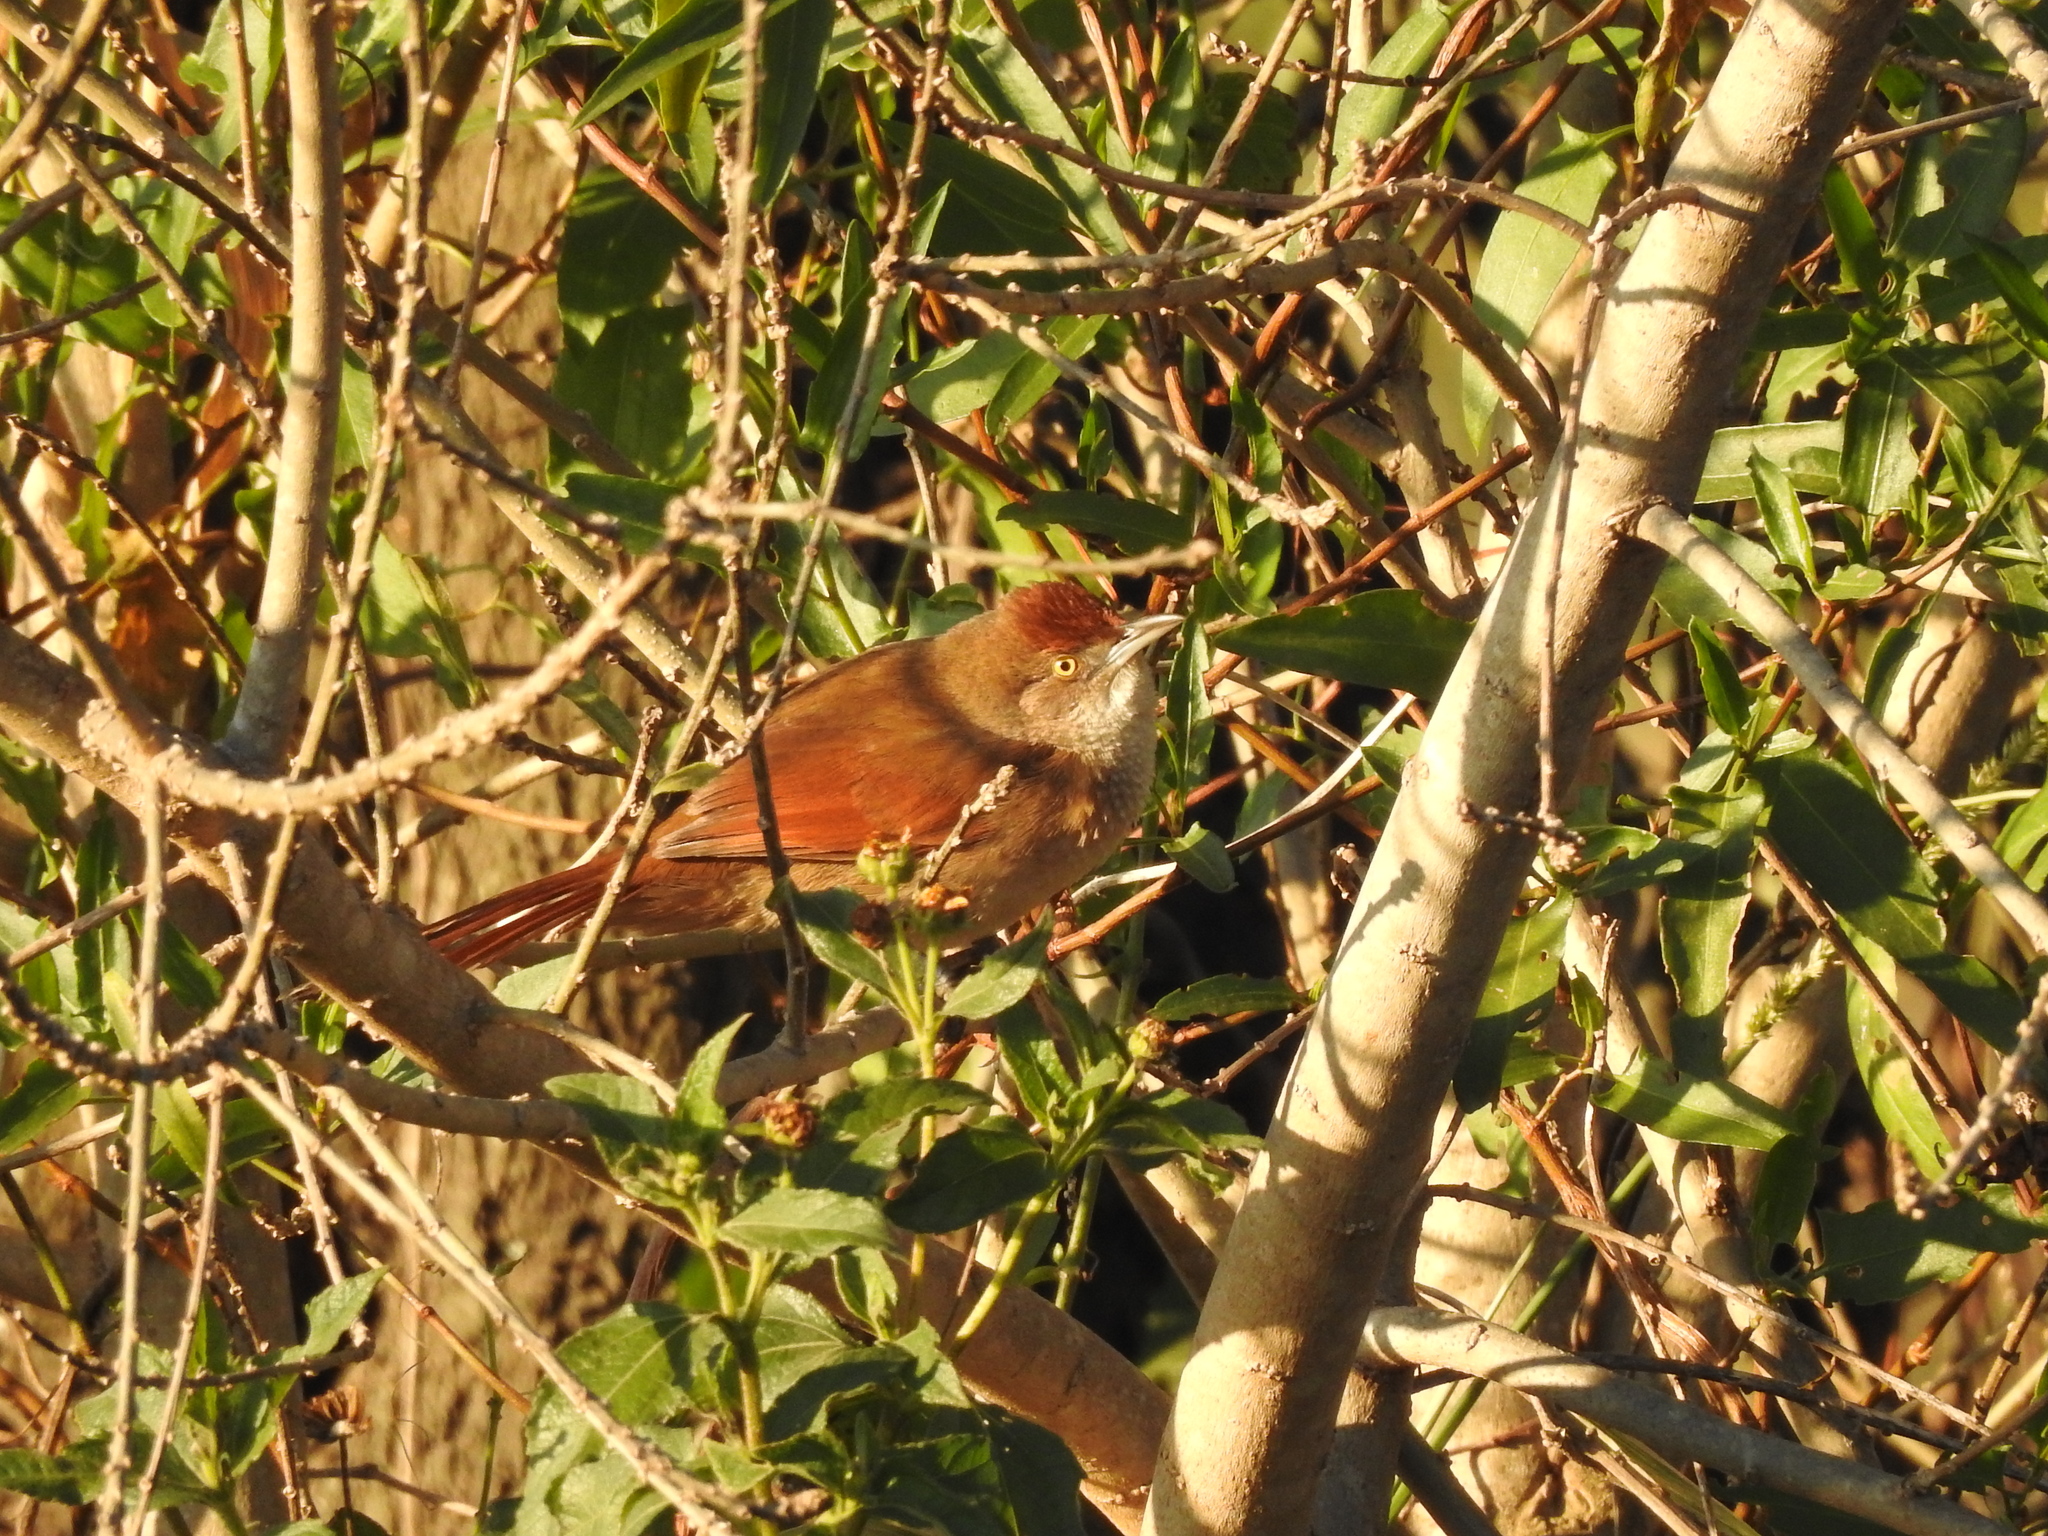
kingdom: Animalia
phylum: Chordata
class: Aves
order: Passeriformes
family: Furnariidae
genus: Phacellodomus
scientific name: Phacellodomus ruber
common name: Greater thornbird
